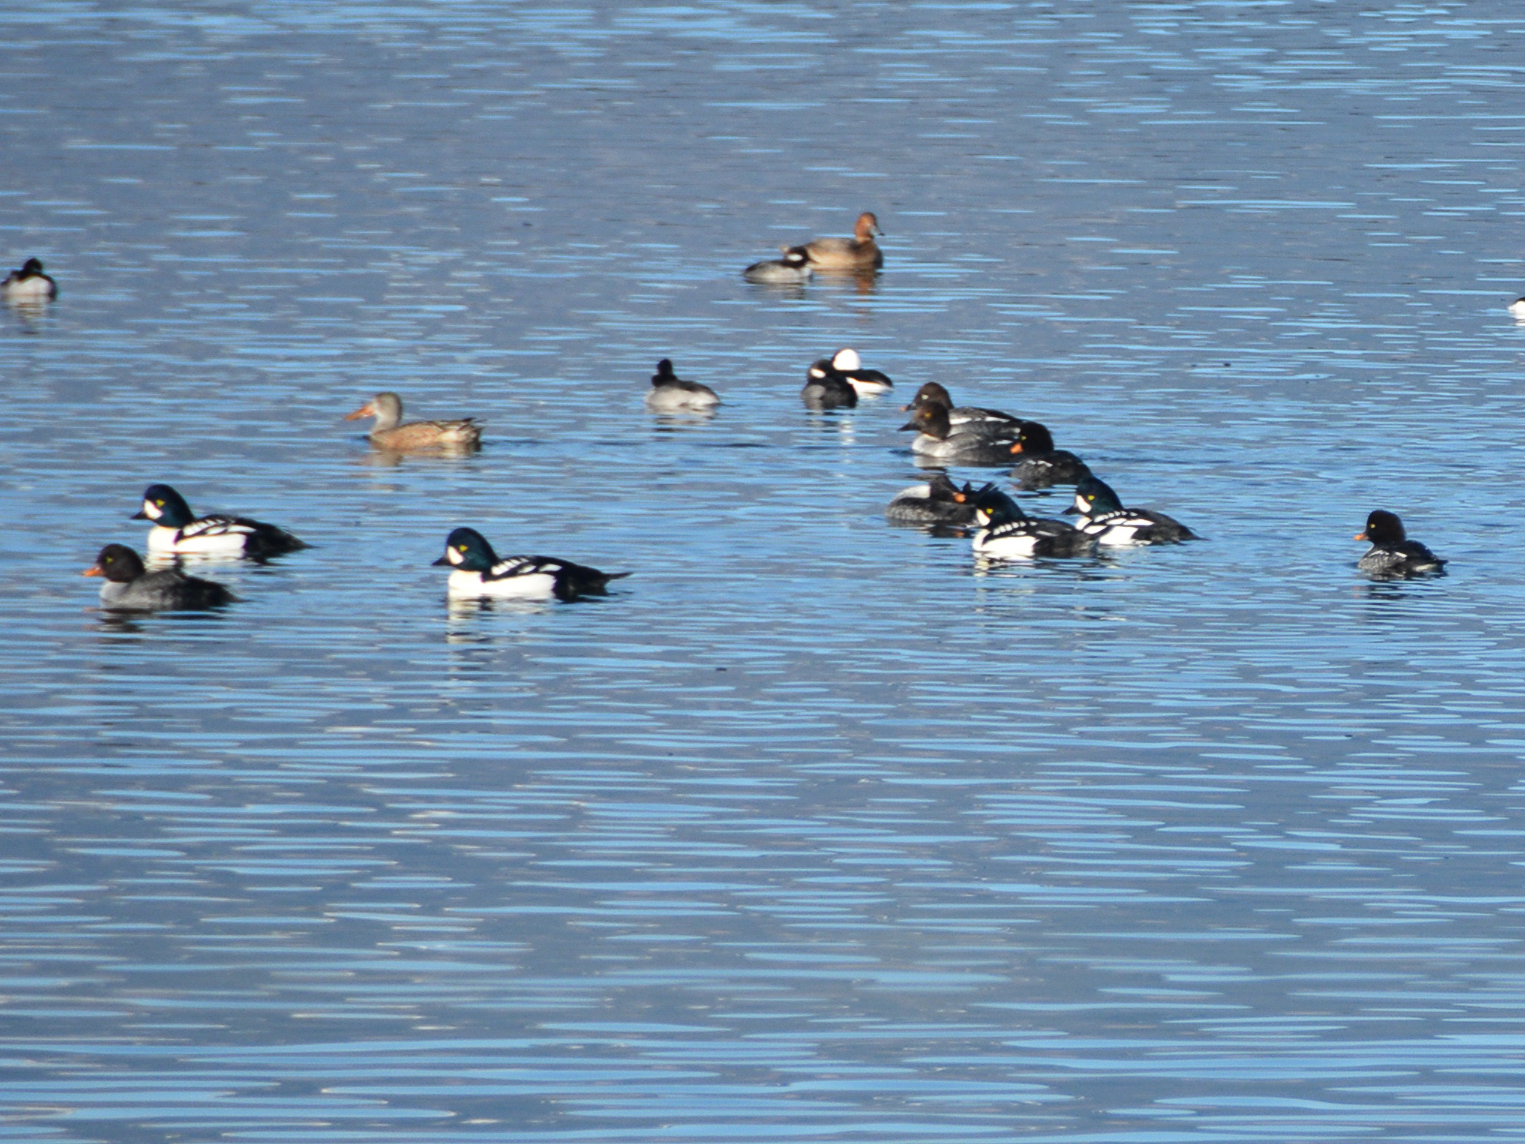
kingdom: Animalia
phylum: Chordata
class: Aves
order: Anseriformes
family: Anatidae
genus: Bucephala
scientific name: Bucephala islandica
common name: Barrow's goldeneye
